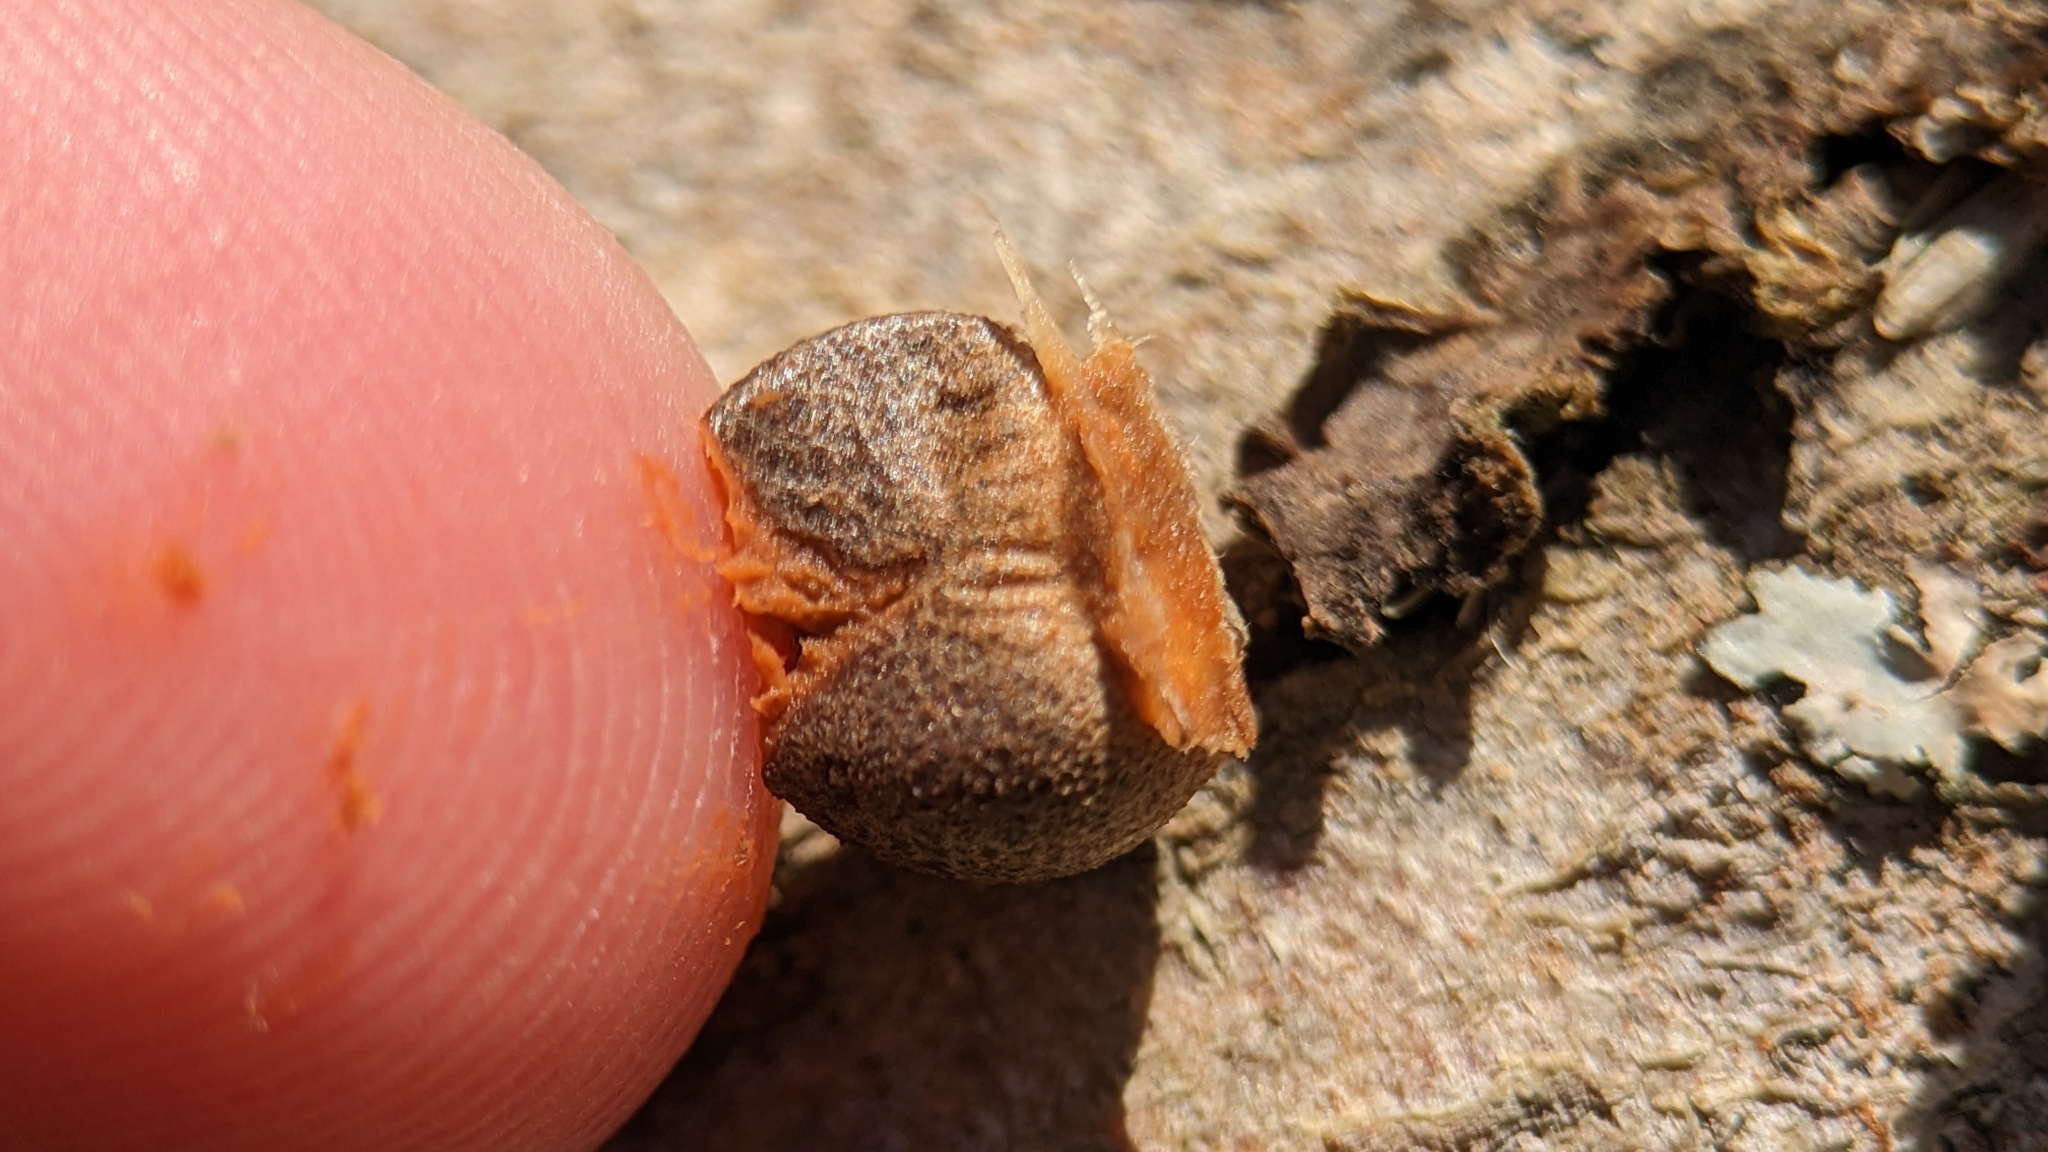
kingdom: Protozoa
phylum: Mycetozoa
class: Myxomycetes
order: Cribrariales
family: Tubiferaceae
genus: Lycogala
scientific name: Lycogala epidendrum
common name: Wolf's milk
